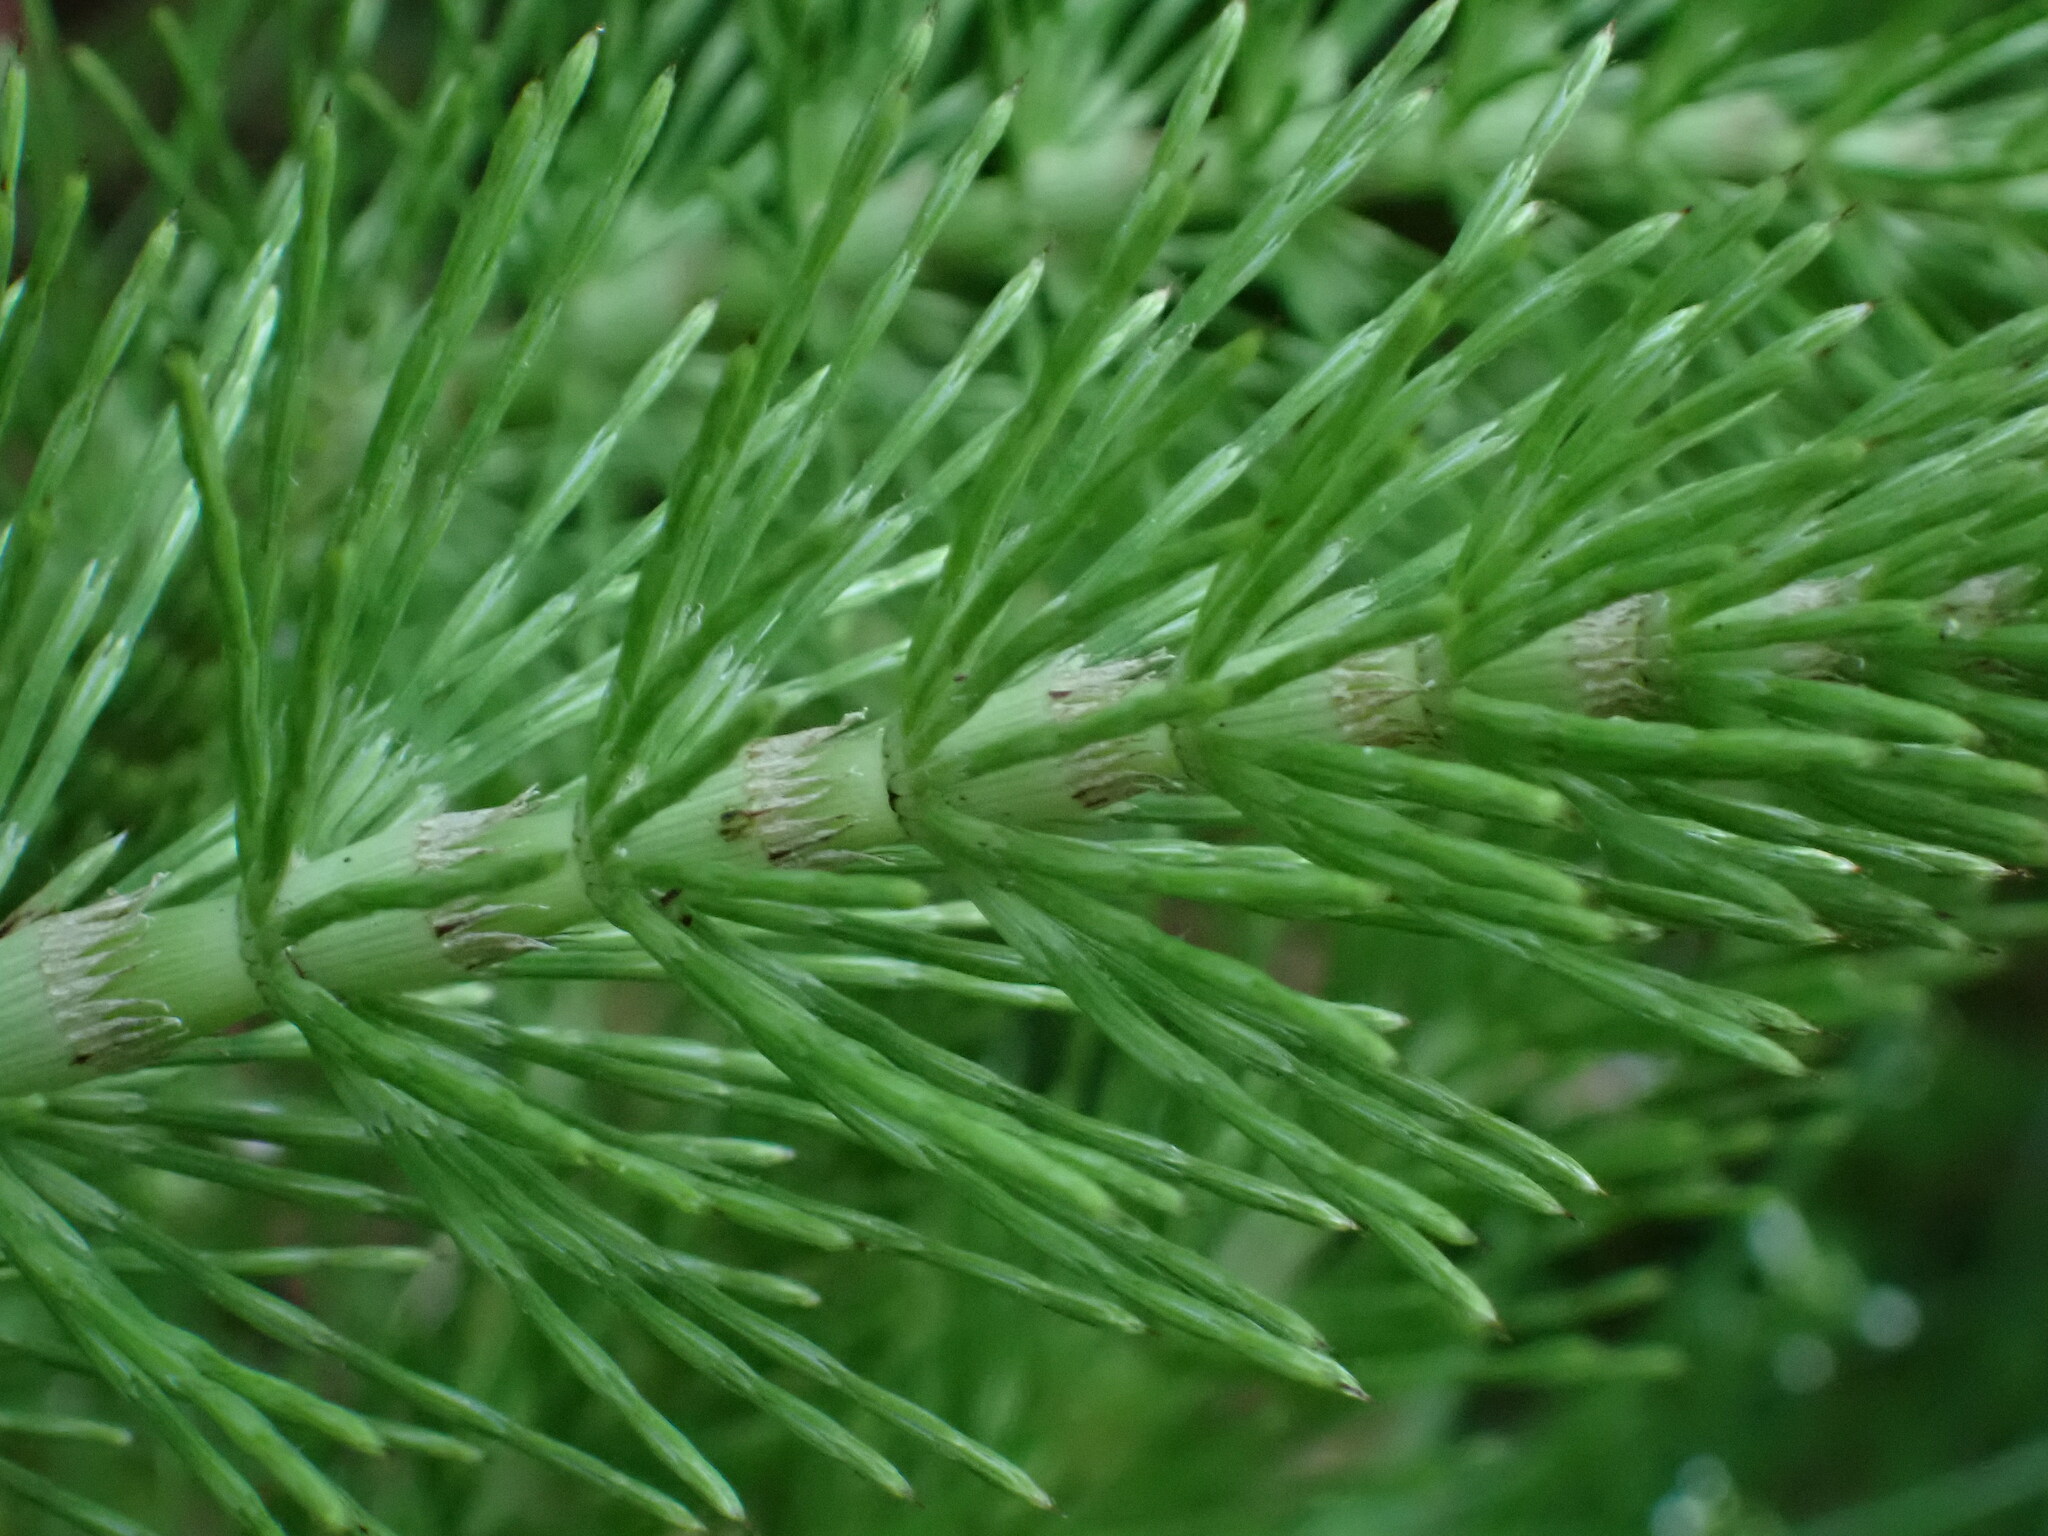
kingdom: Plantae
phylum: Tracheophyta
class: Polypodiopsida
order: Equisetales
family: Equisetaceae
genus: Equisetum
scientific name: Equisetum braunii
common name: Braun's horsetail
